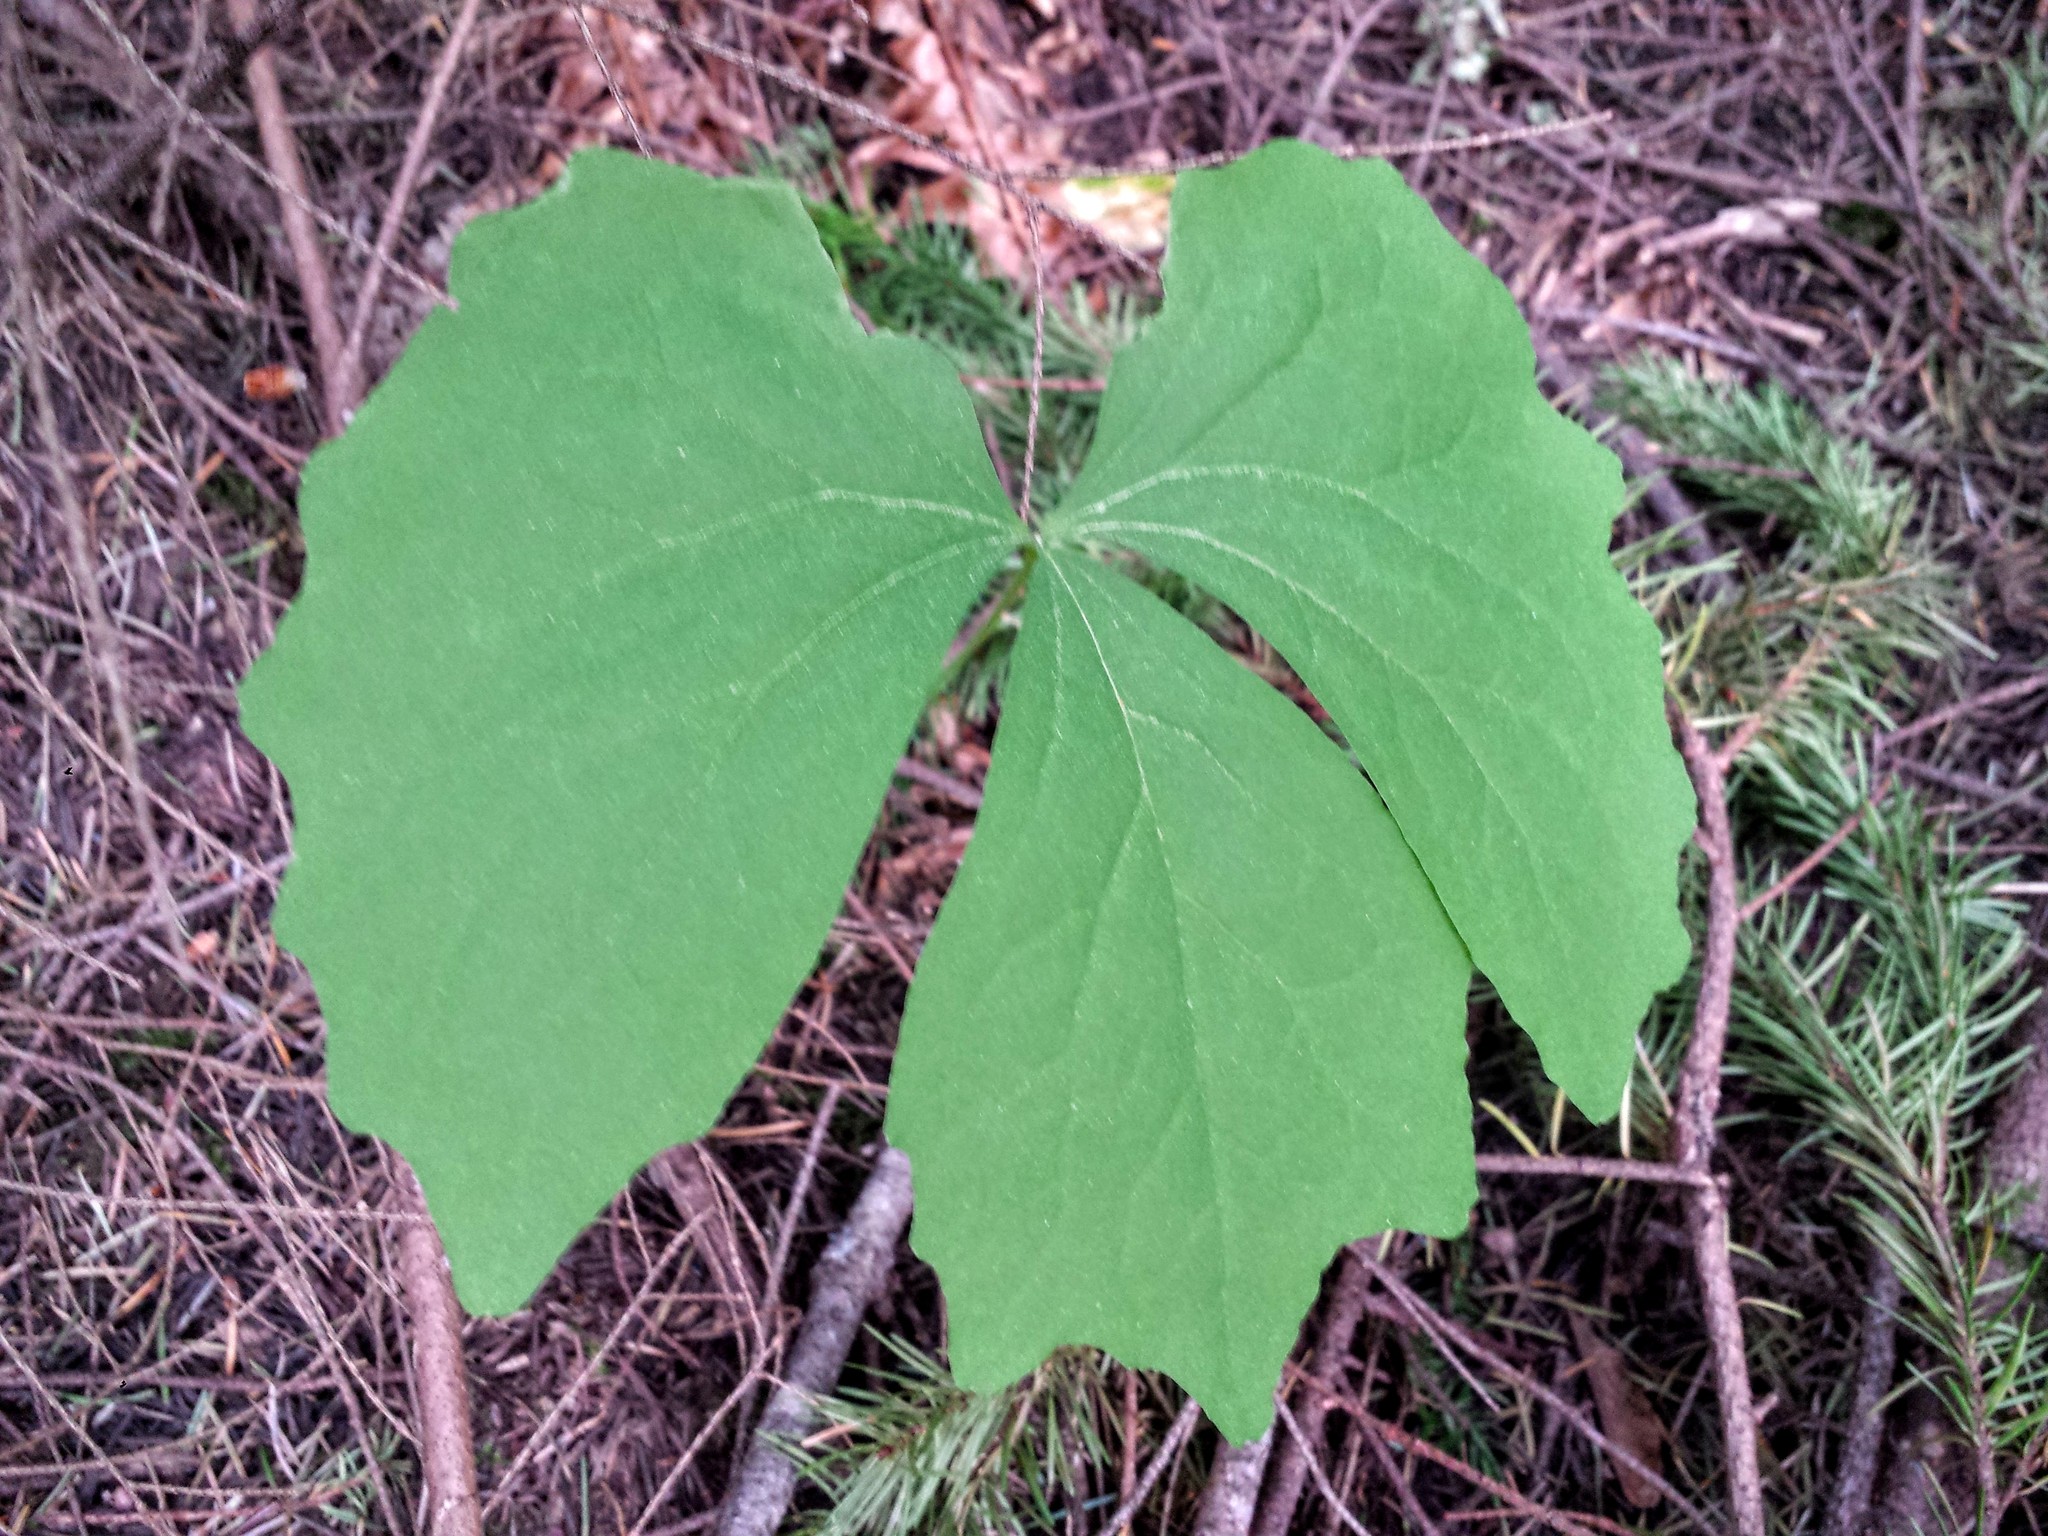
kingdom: Plantae
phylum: Tracheophyta
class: Magnoliopsida
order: Ranunculales
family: Berberidaceae
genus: Achlys
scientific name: Achlys triphylla
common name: Vanilla-leaf
